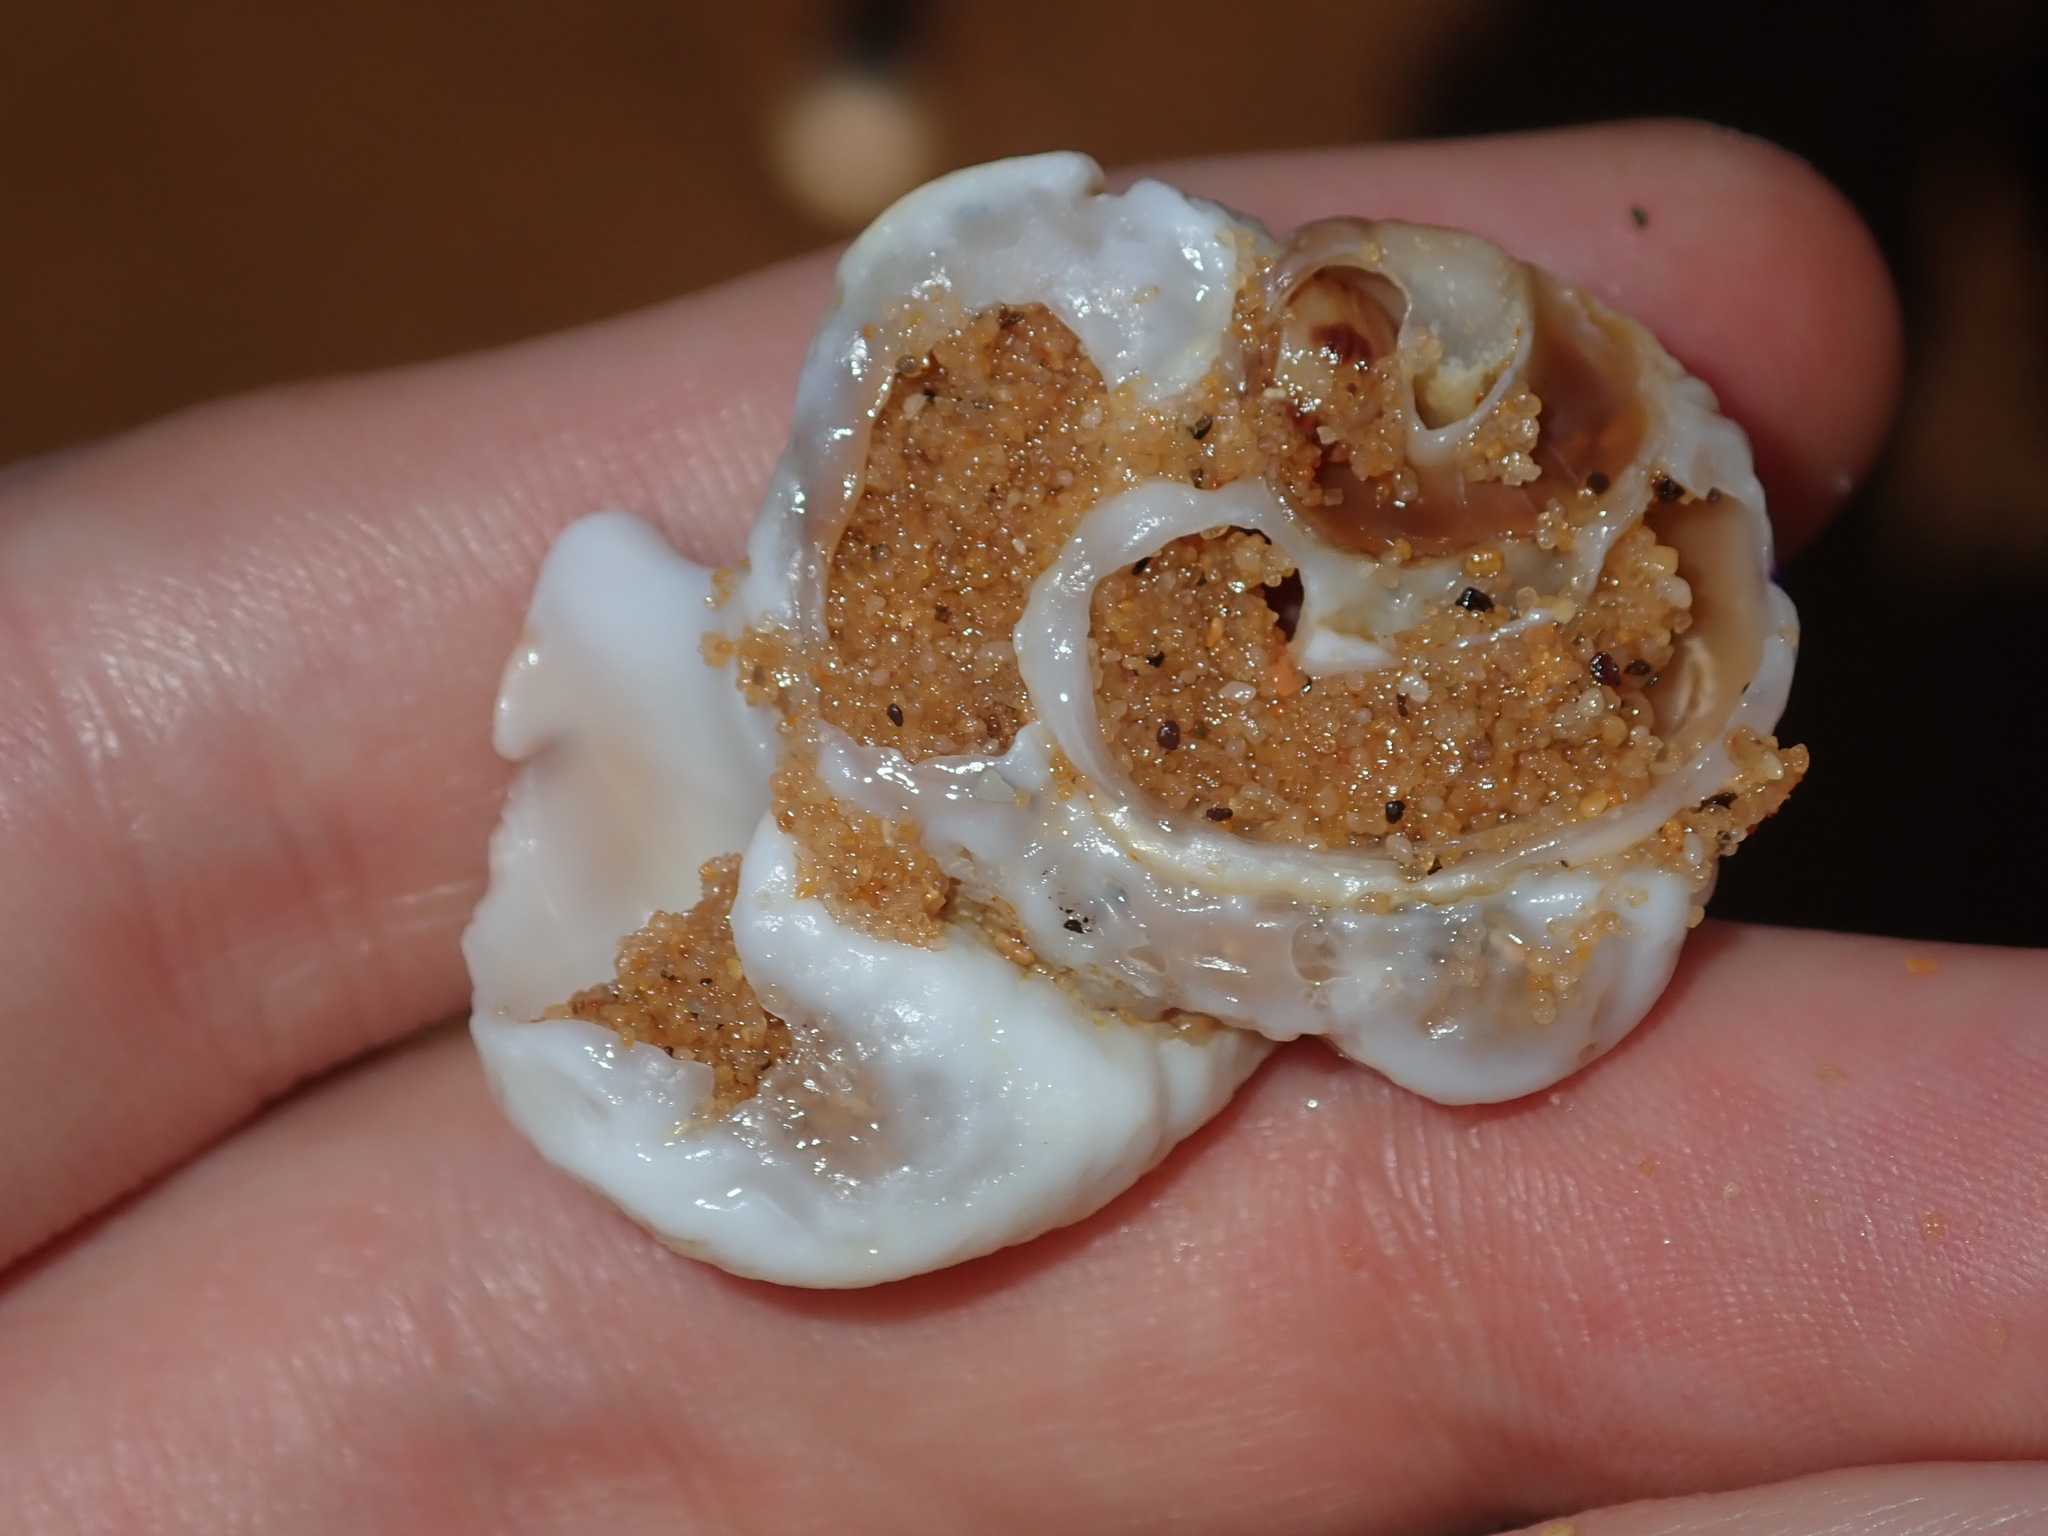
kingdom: Animalia
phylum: Mollusca
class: Gastropoda
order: Littorinimorpha
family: Vermetidae
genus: Thylacodes
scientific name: Thylacodes sipho
